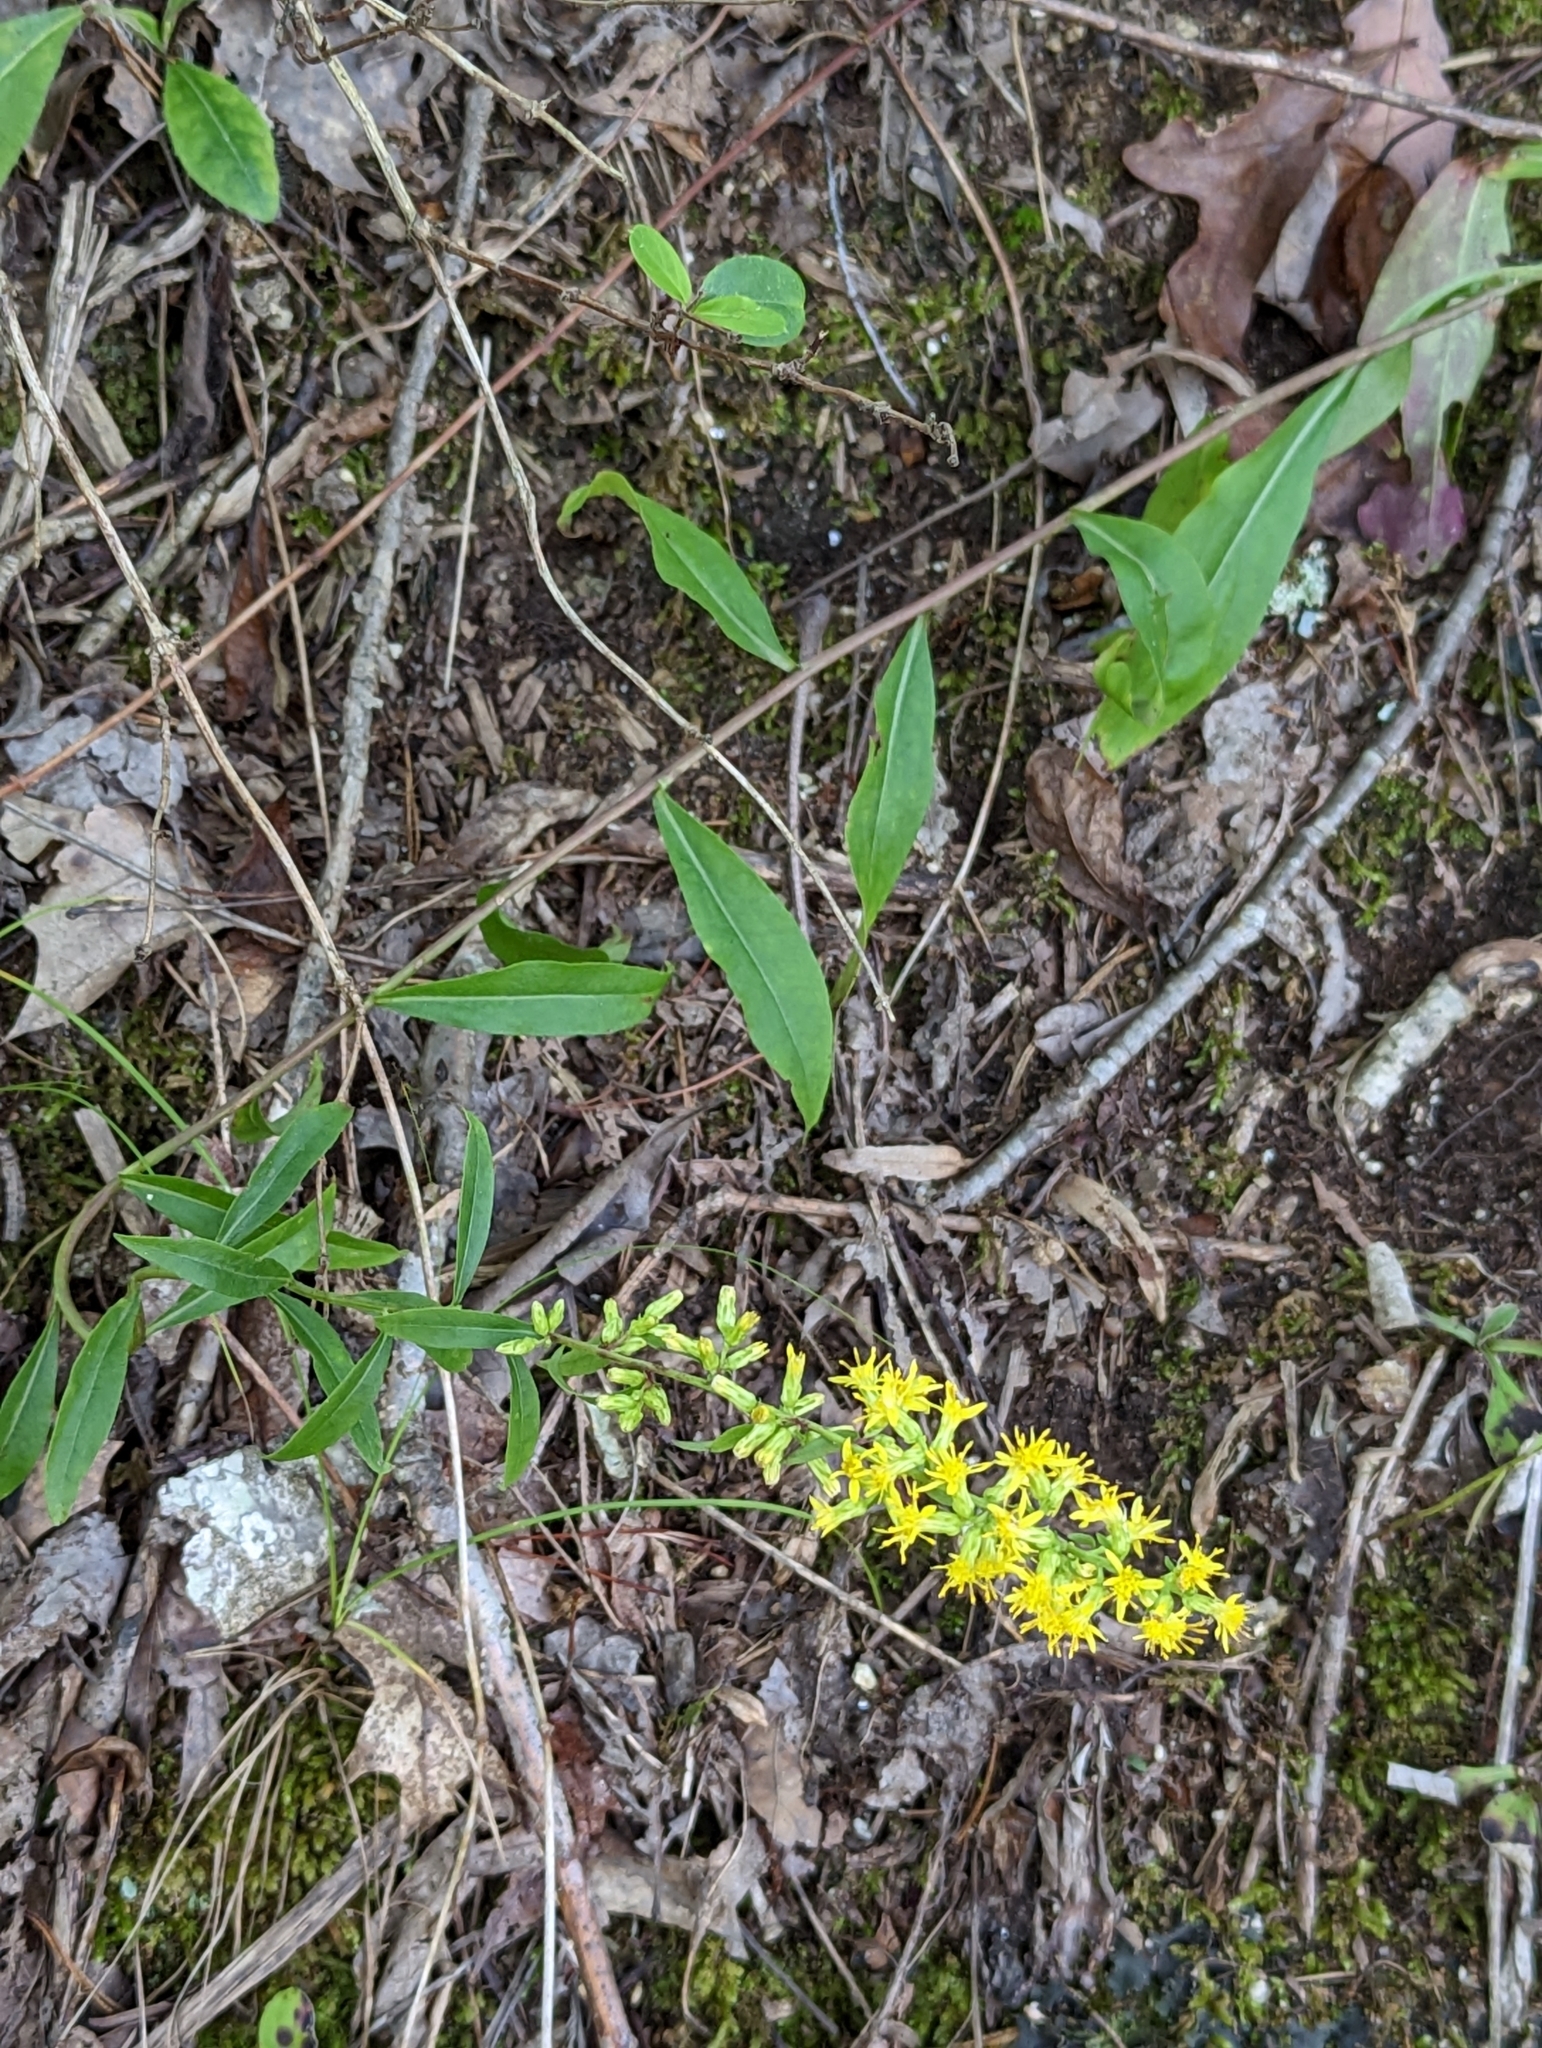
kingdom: Plantae
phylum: Tracheophyta
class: Magnoliopsida
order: Asterales
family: Asteraceae
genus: Solidago
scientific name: Solidago erecta
